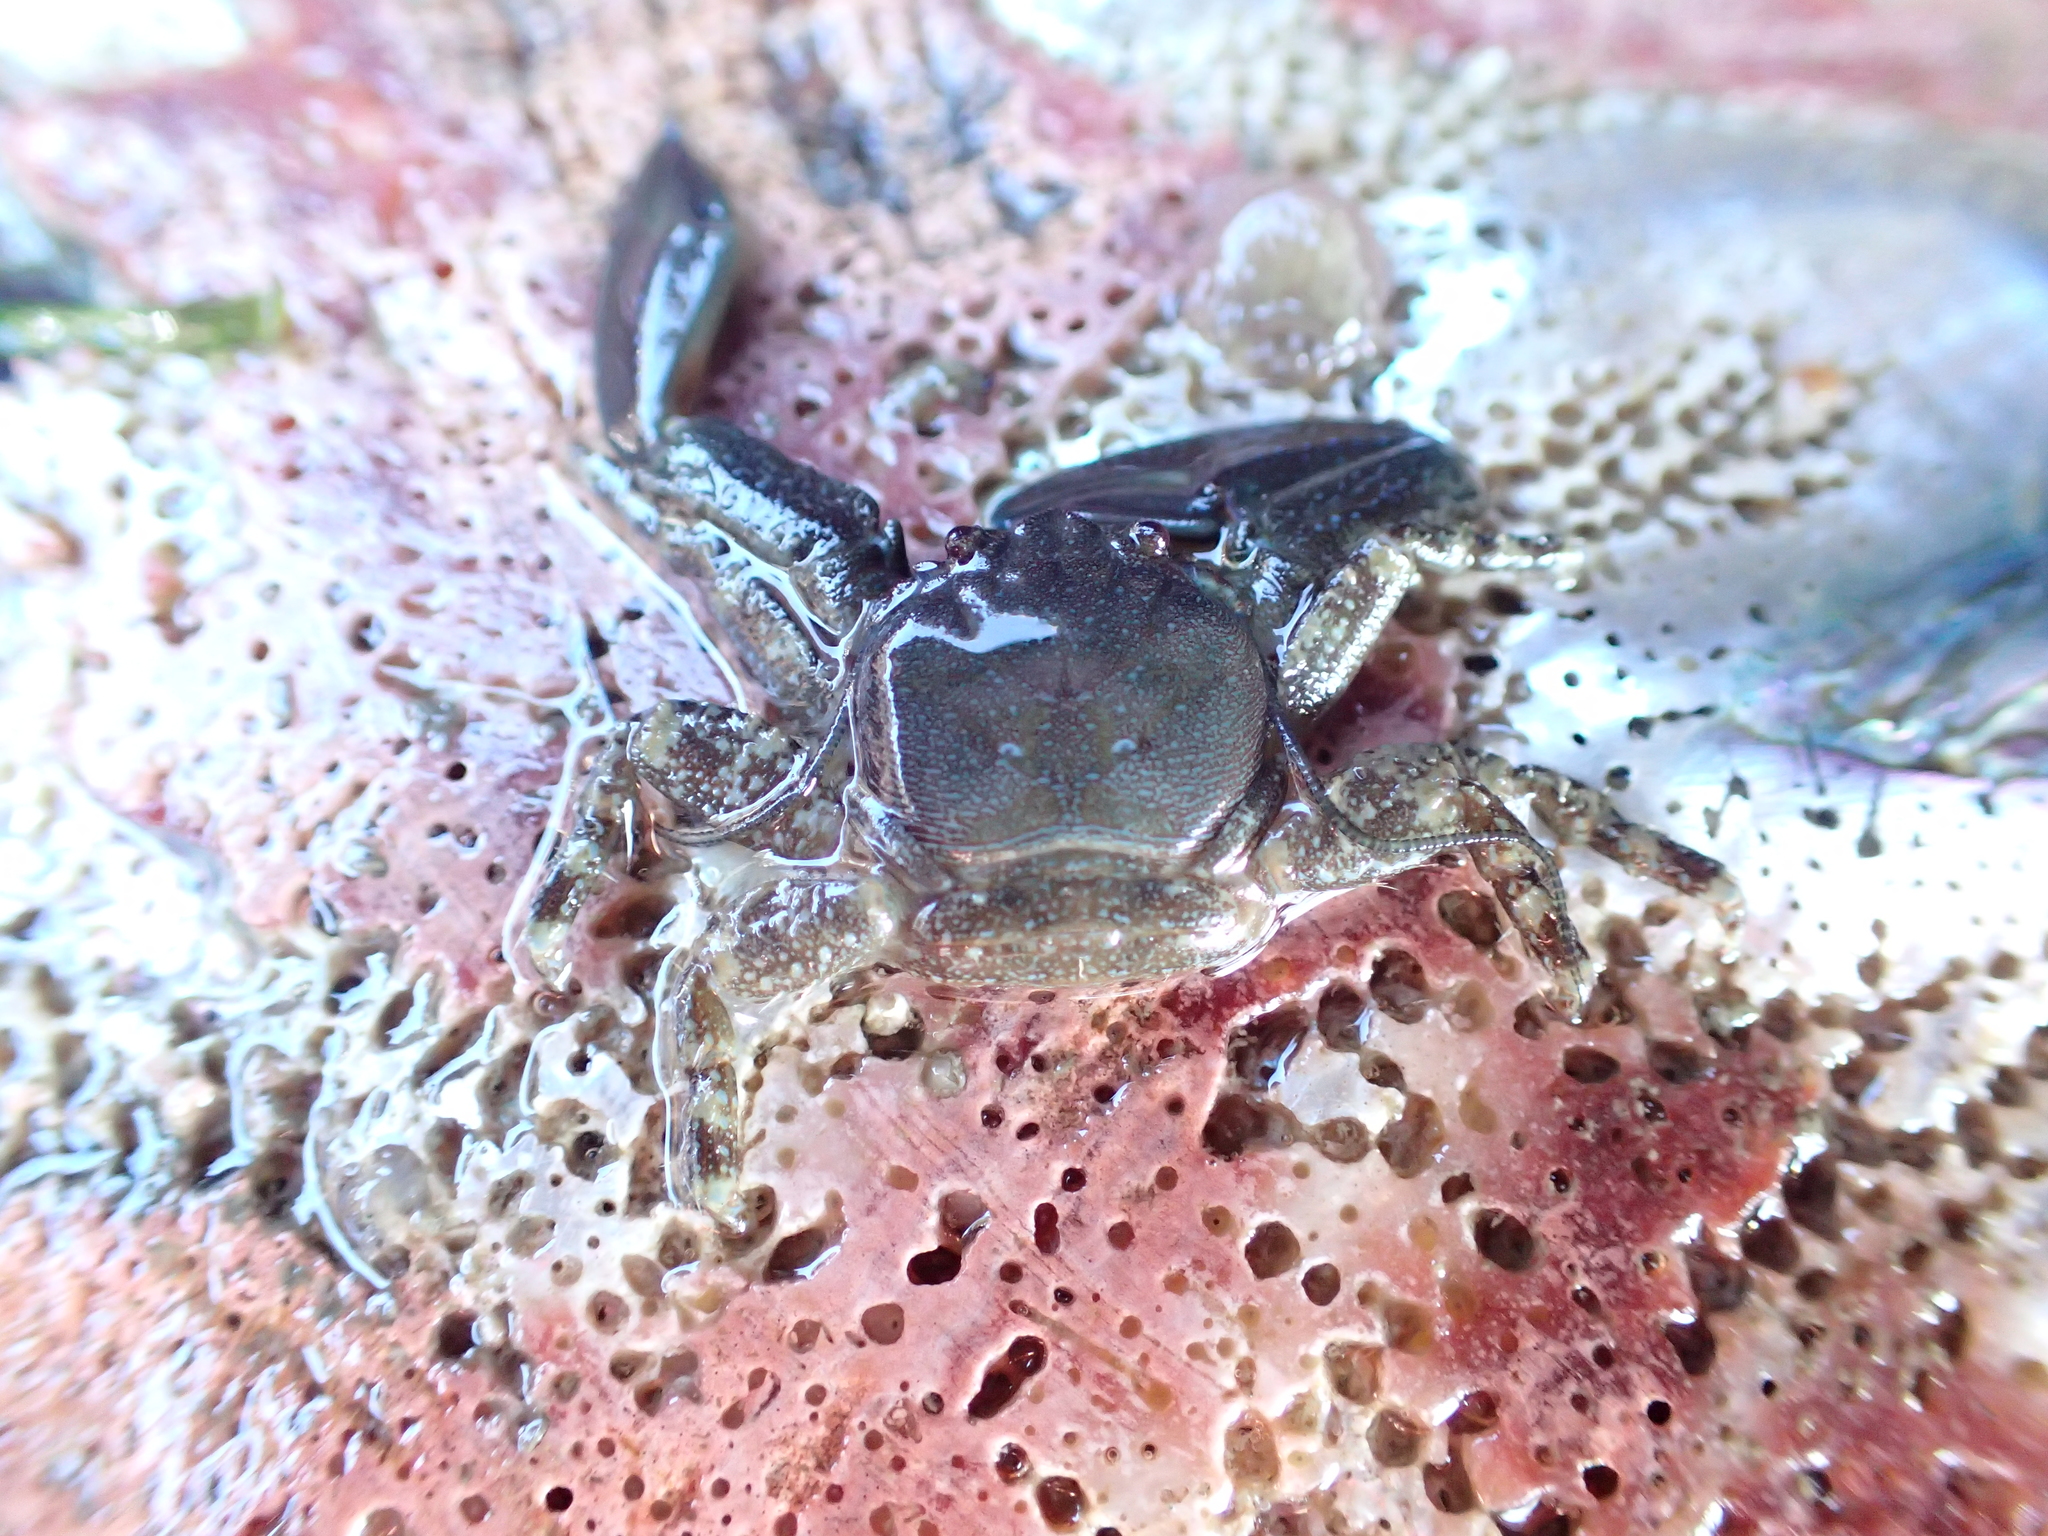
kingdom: Animalia
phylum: Arthropoda
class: Malacostraca
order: Decapoda
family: Porcellanidae
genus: Petrolisthes
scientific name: Petrolisthes eriomerus
